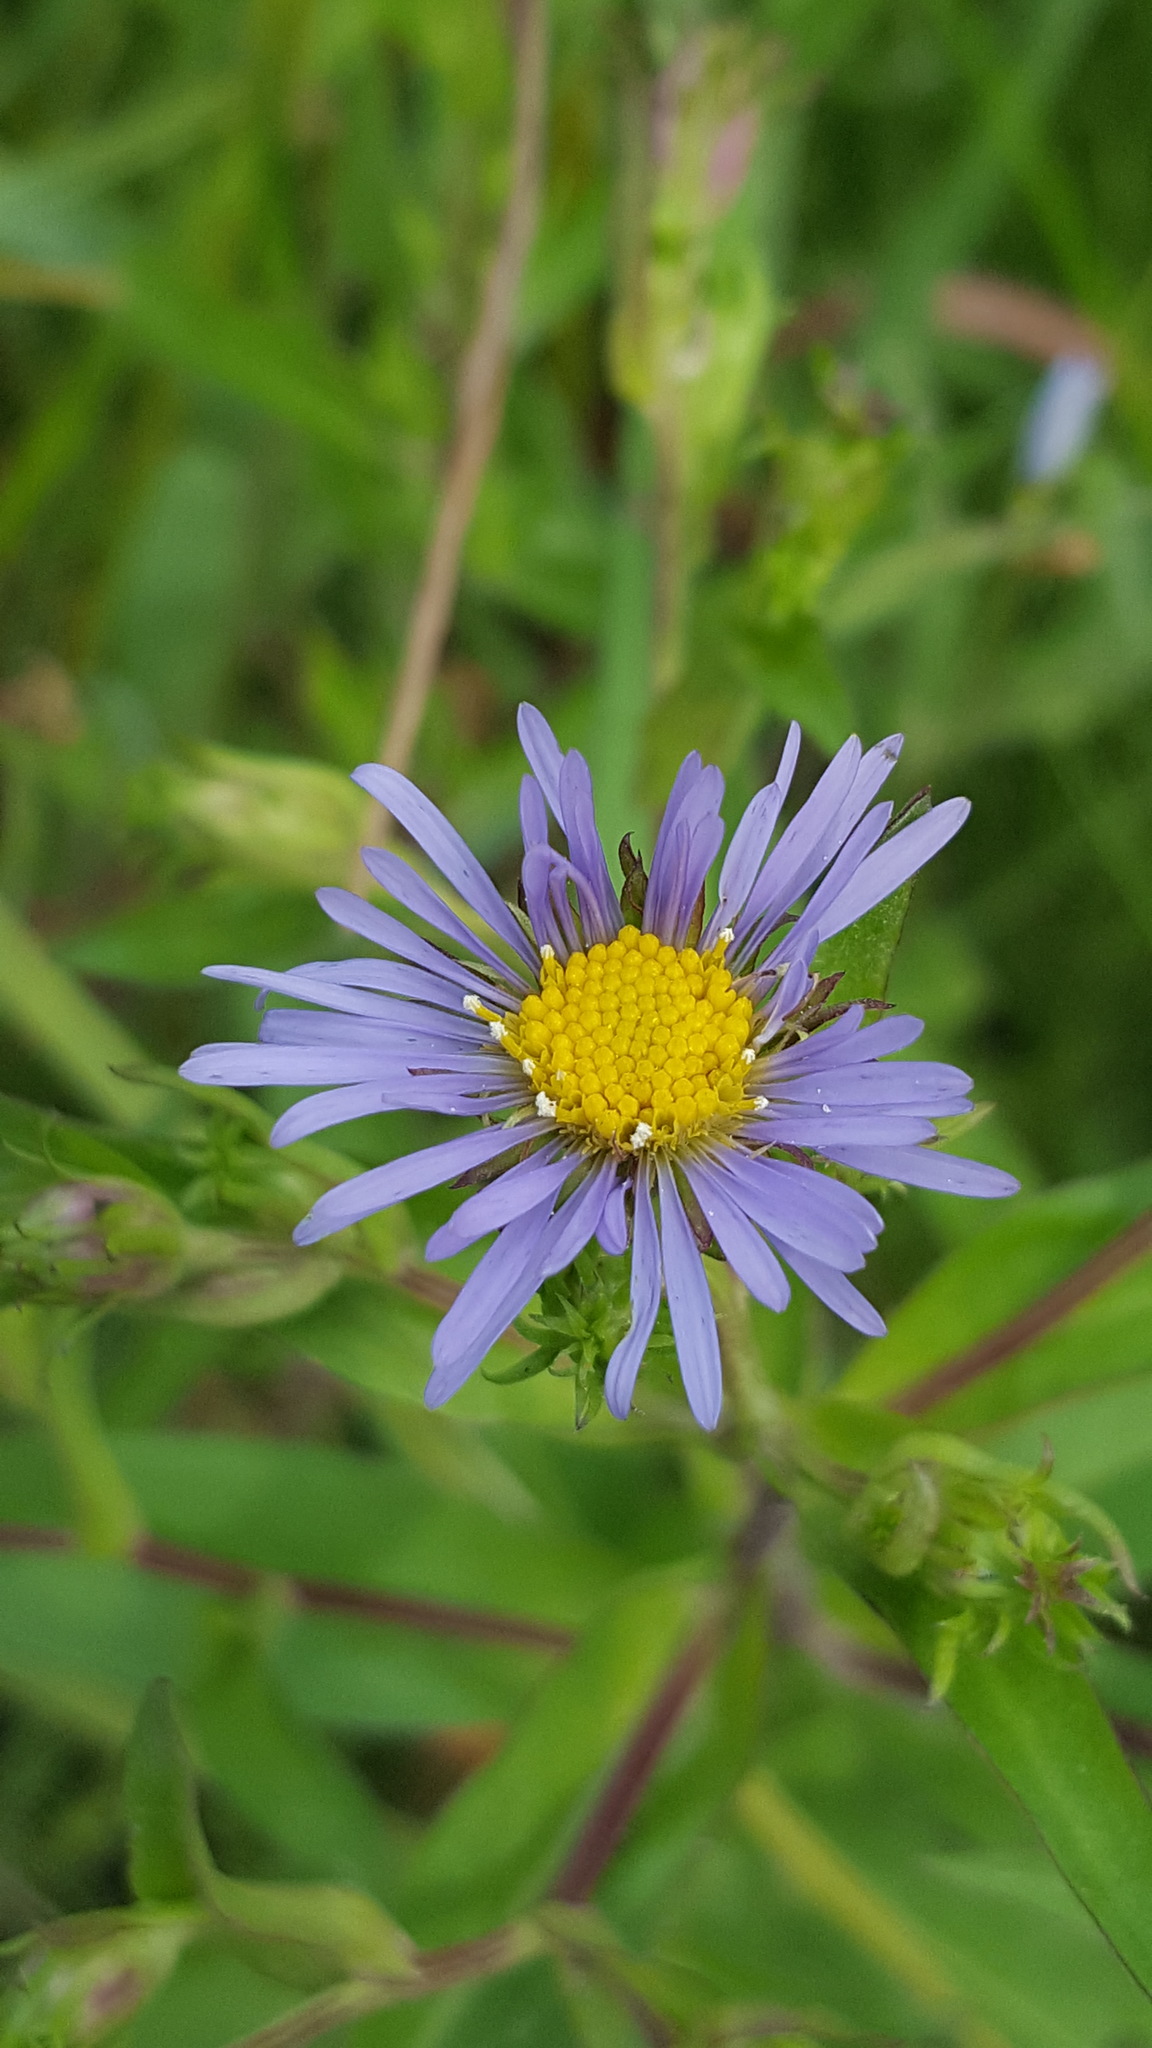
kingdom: Plantae
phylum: Tracheophyta
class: Magnoliopsida
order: Asterales
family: Asteraceae
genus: Symphyotrichum
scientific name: Symphyotrichum puniceum
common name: Bog aster
